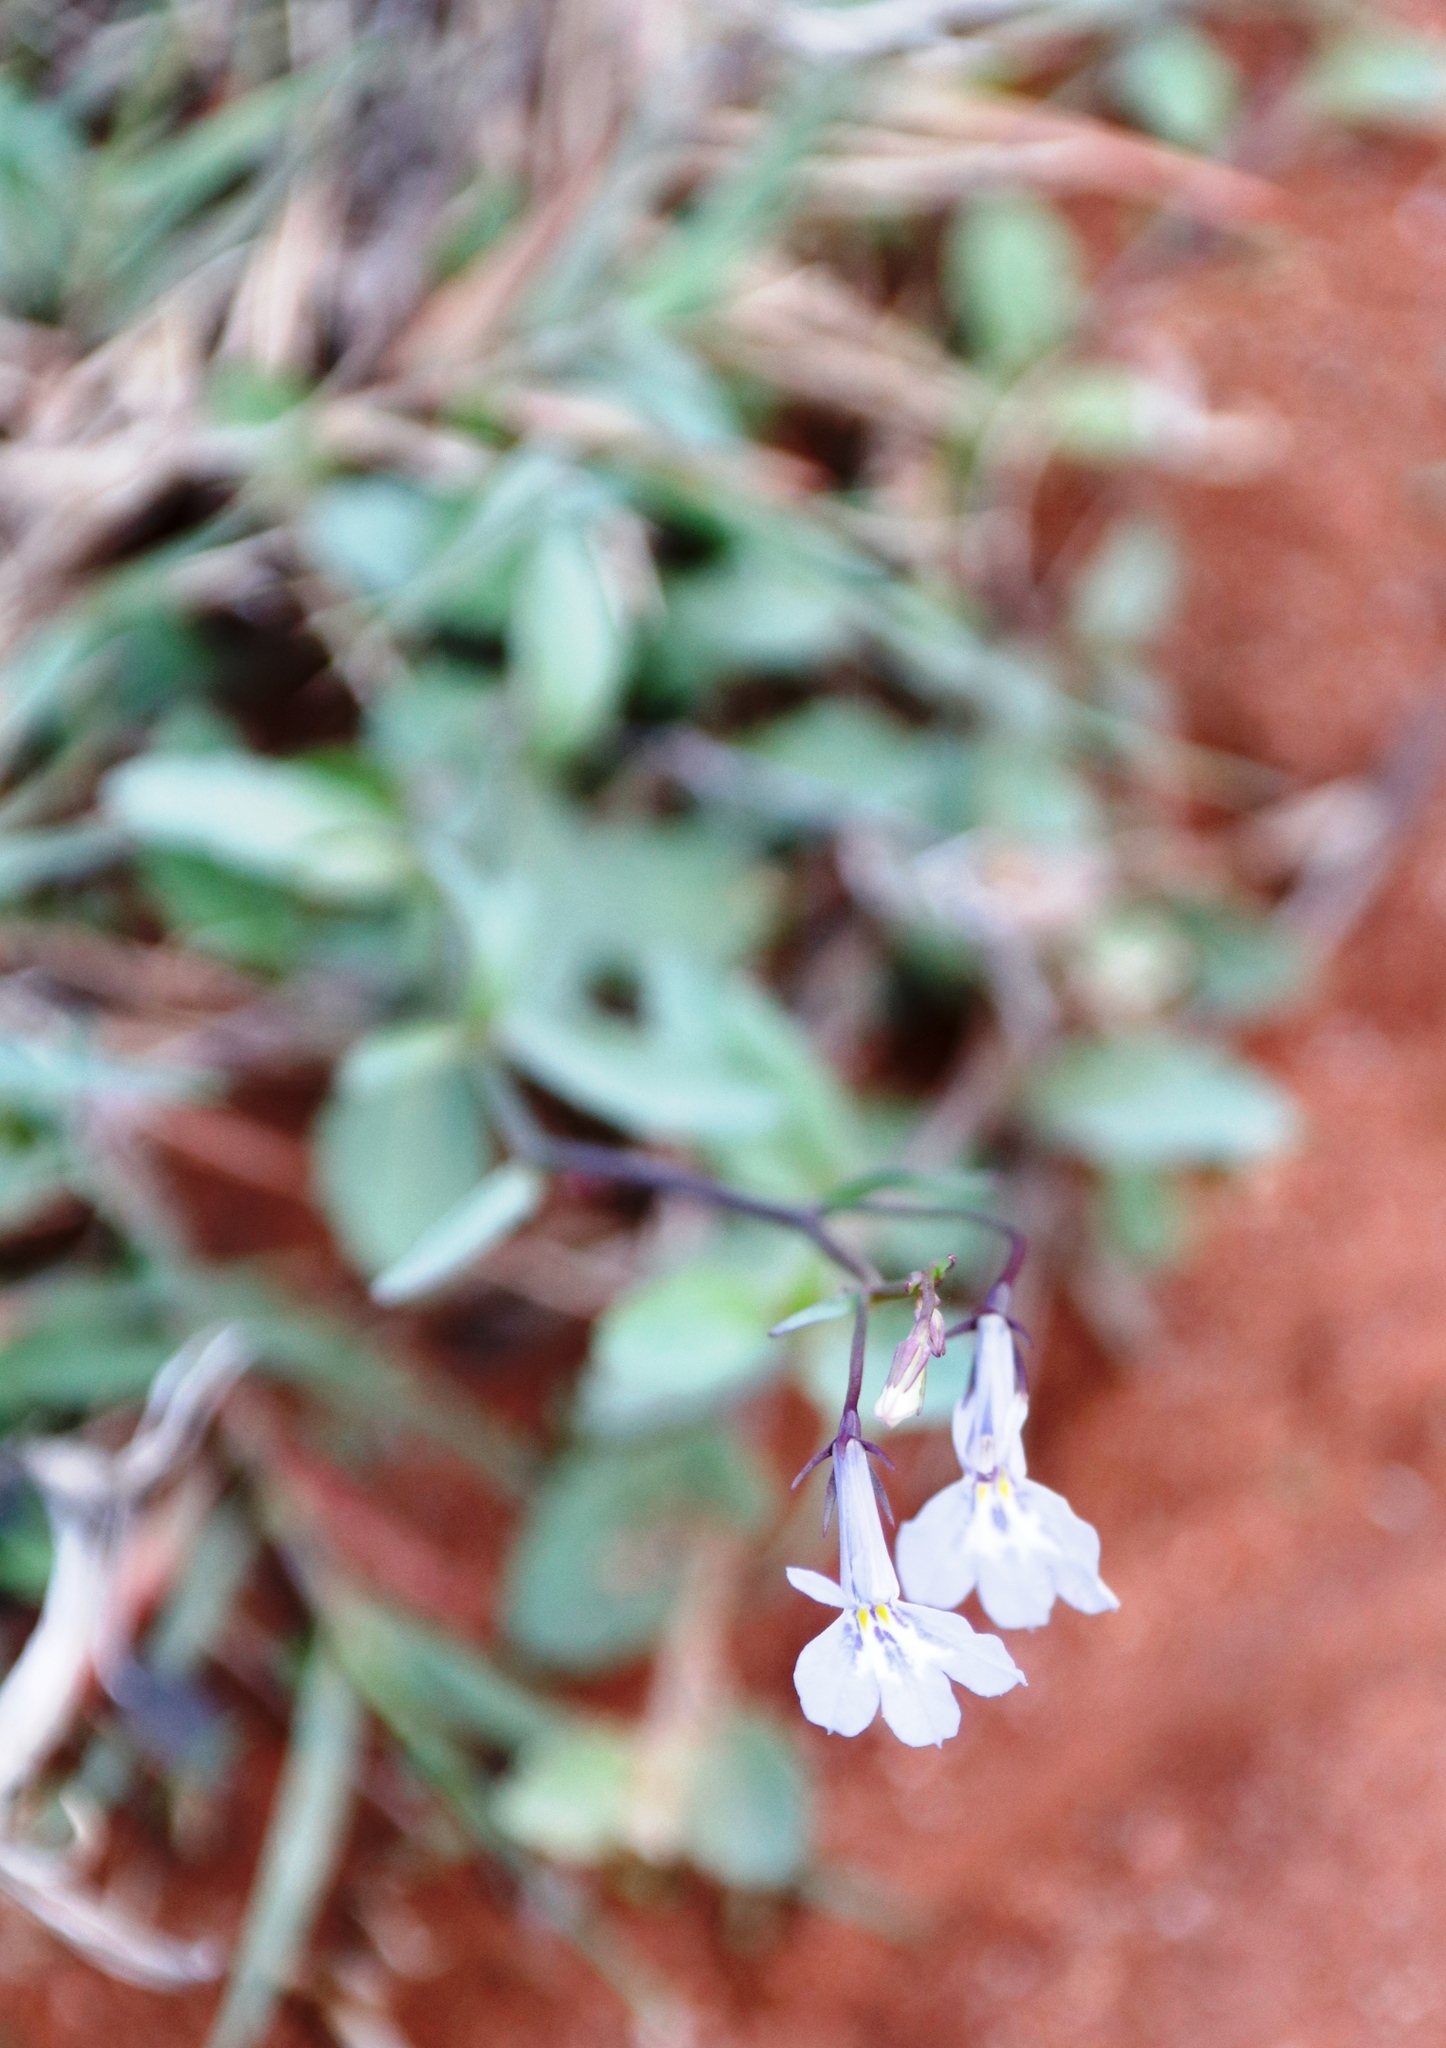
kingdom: Plantae
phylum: Tracheophyta
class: Magnoliopsida
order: Asterales
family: Campanulaceae
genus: Lobelia
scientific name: Lobelia erinus
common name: Edging lobelia
